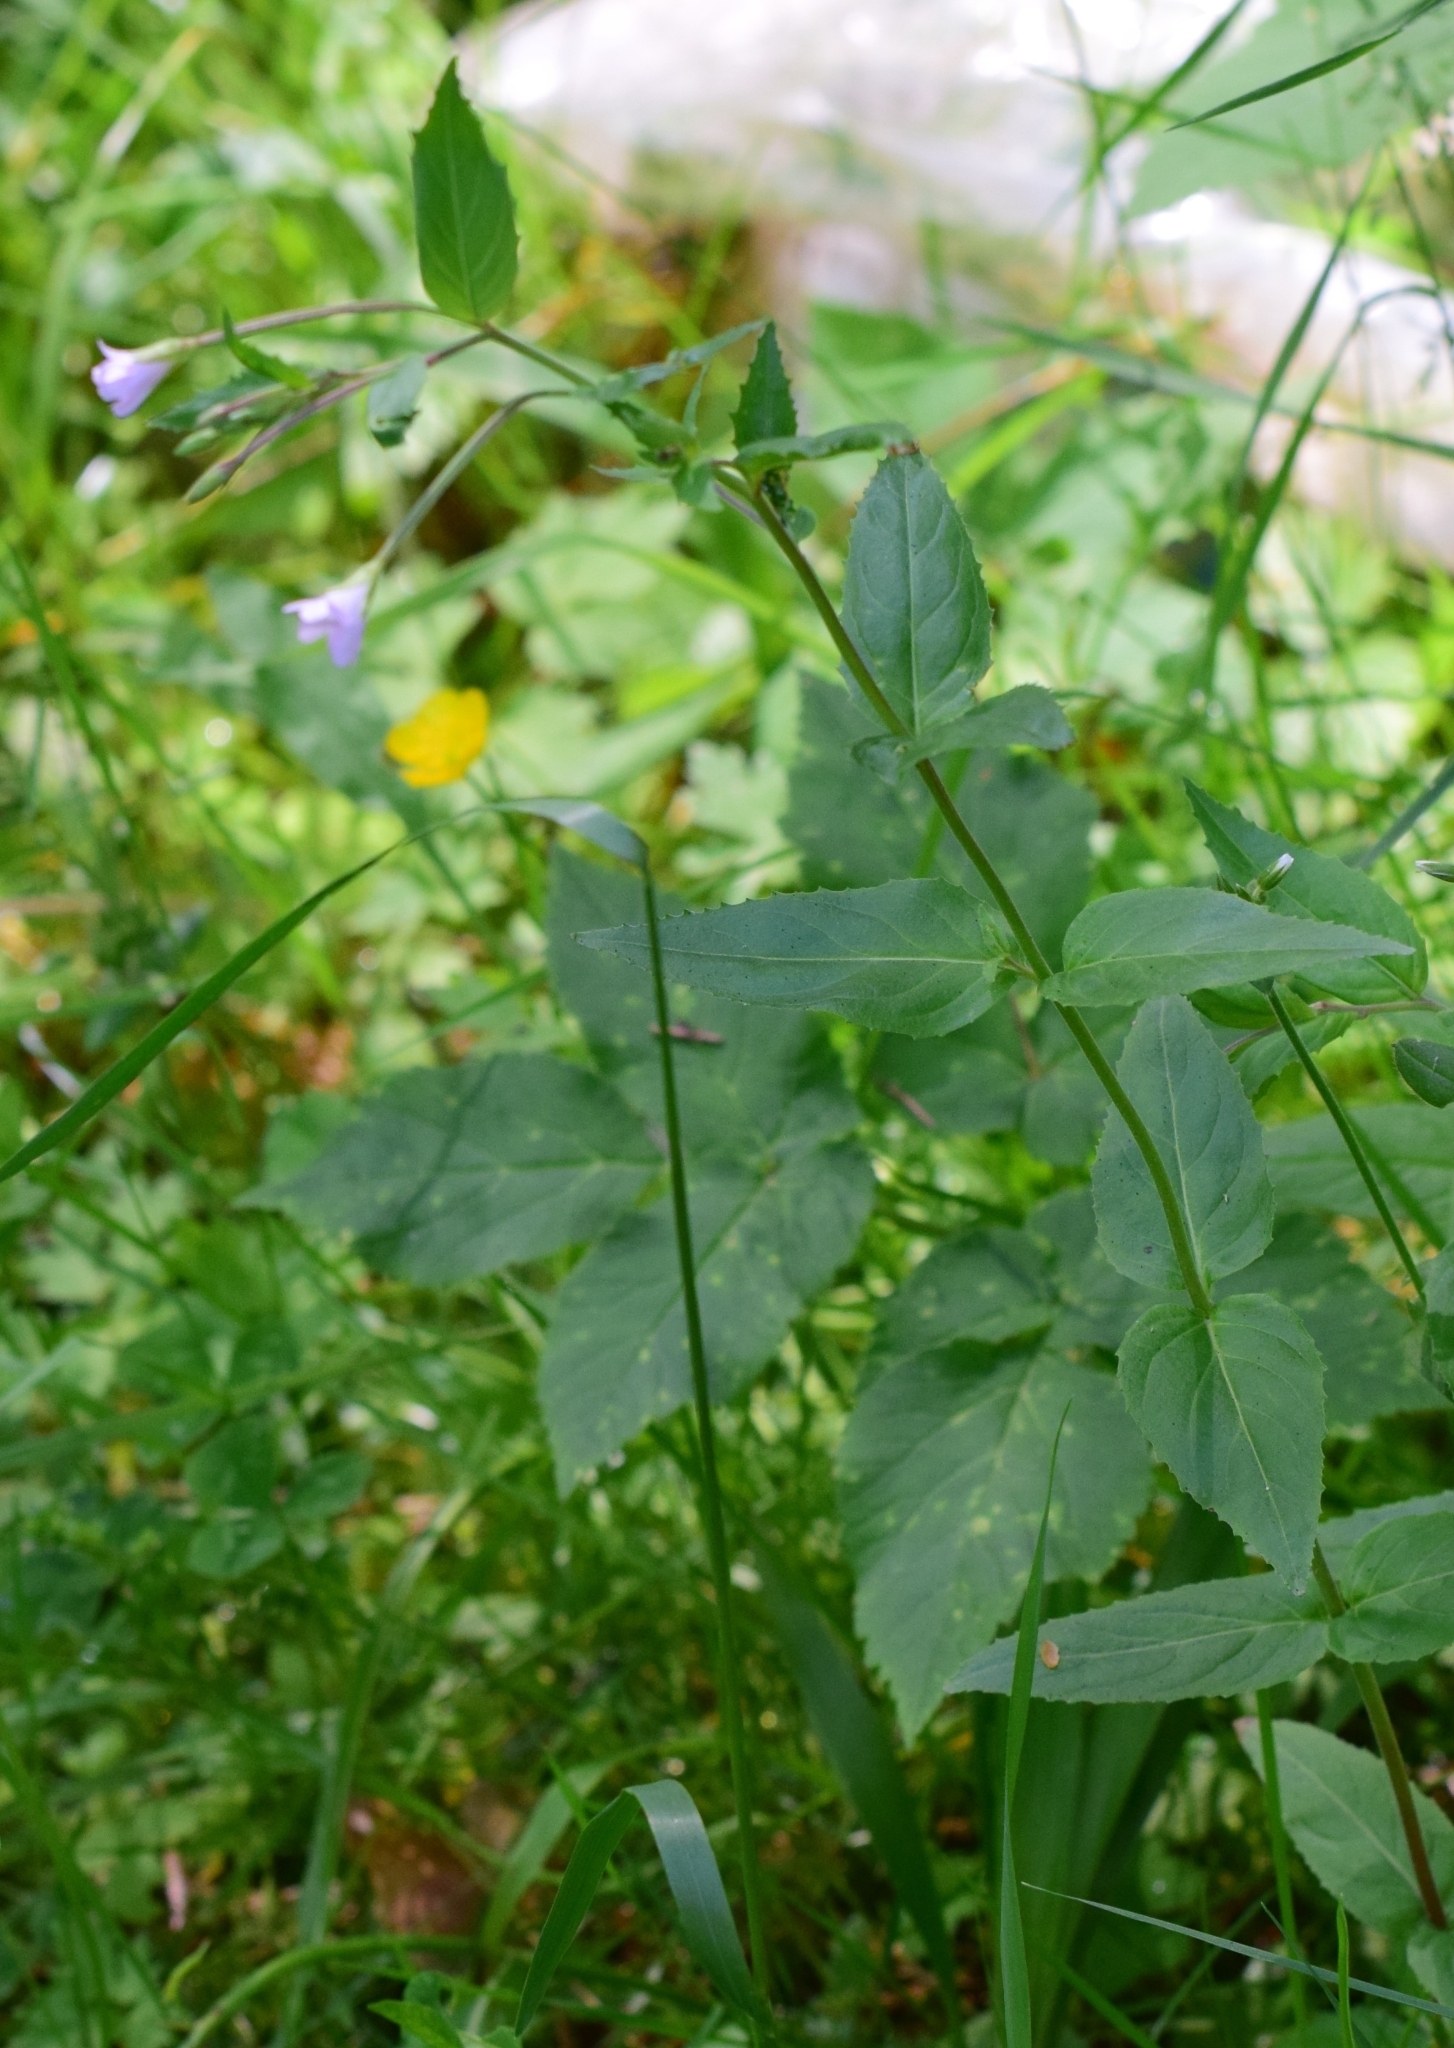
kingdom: Plantae
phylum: Tracheophyta
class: Magnoliopsida
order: Myrtales
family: Onagraceae
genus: Epilobium
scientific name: Epilobium montanum
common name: Broad-leaved willowherb
